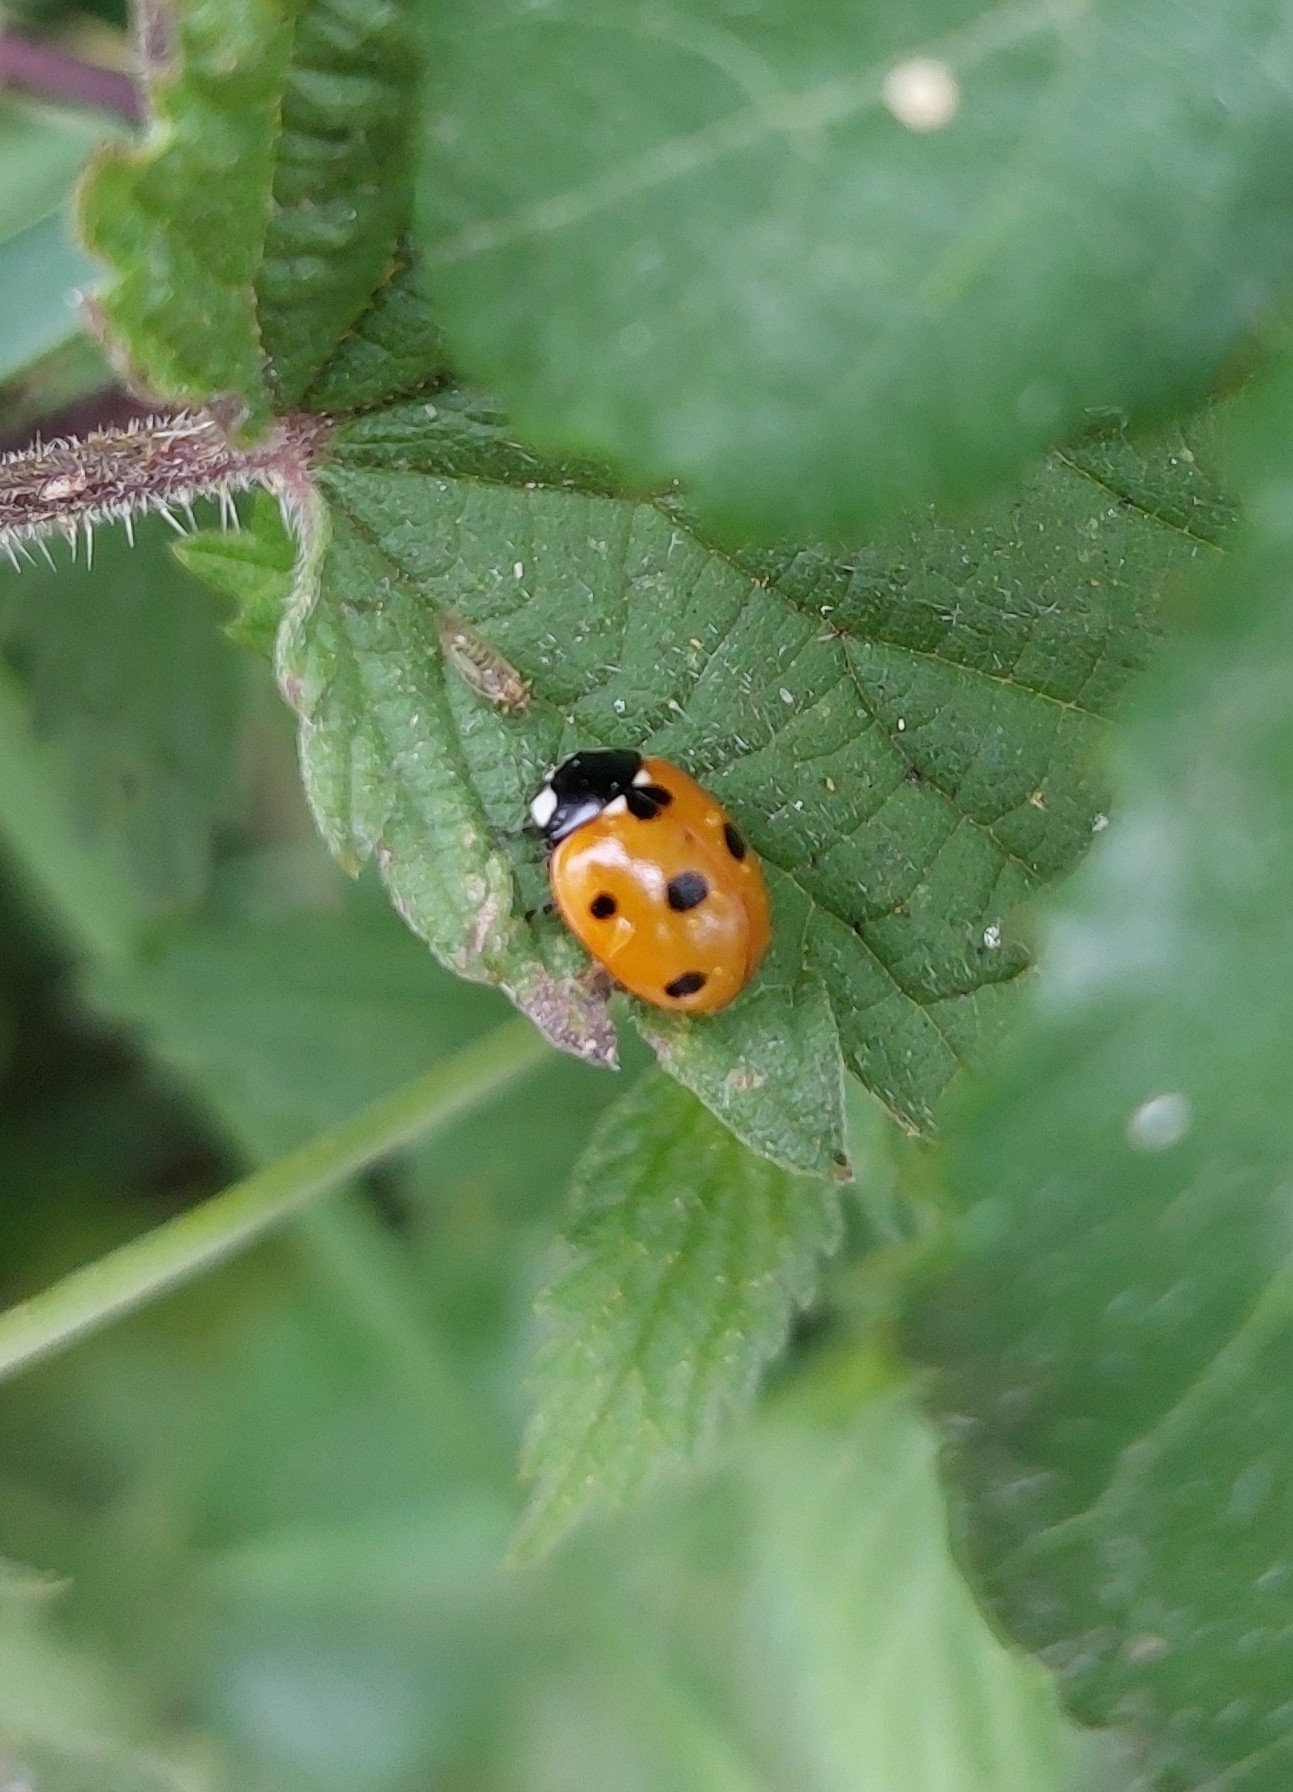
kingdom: Animalia
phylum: Arthropoda
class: Insecta
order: Coleoptera
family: Coccinellidae
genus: Coccinella
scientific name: Coccinella septempunctata
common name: Sevenspotted lady beetle
